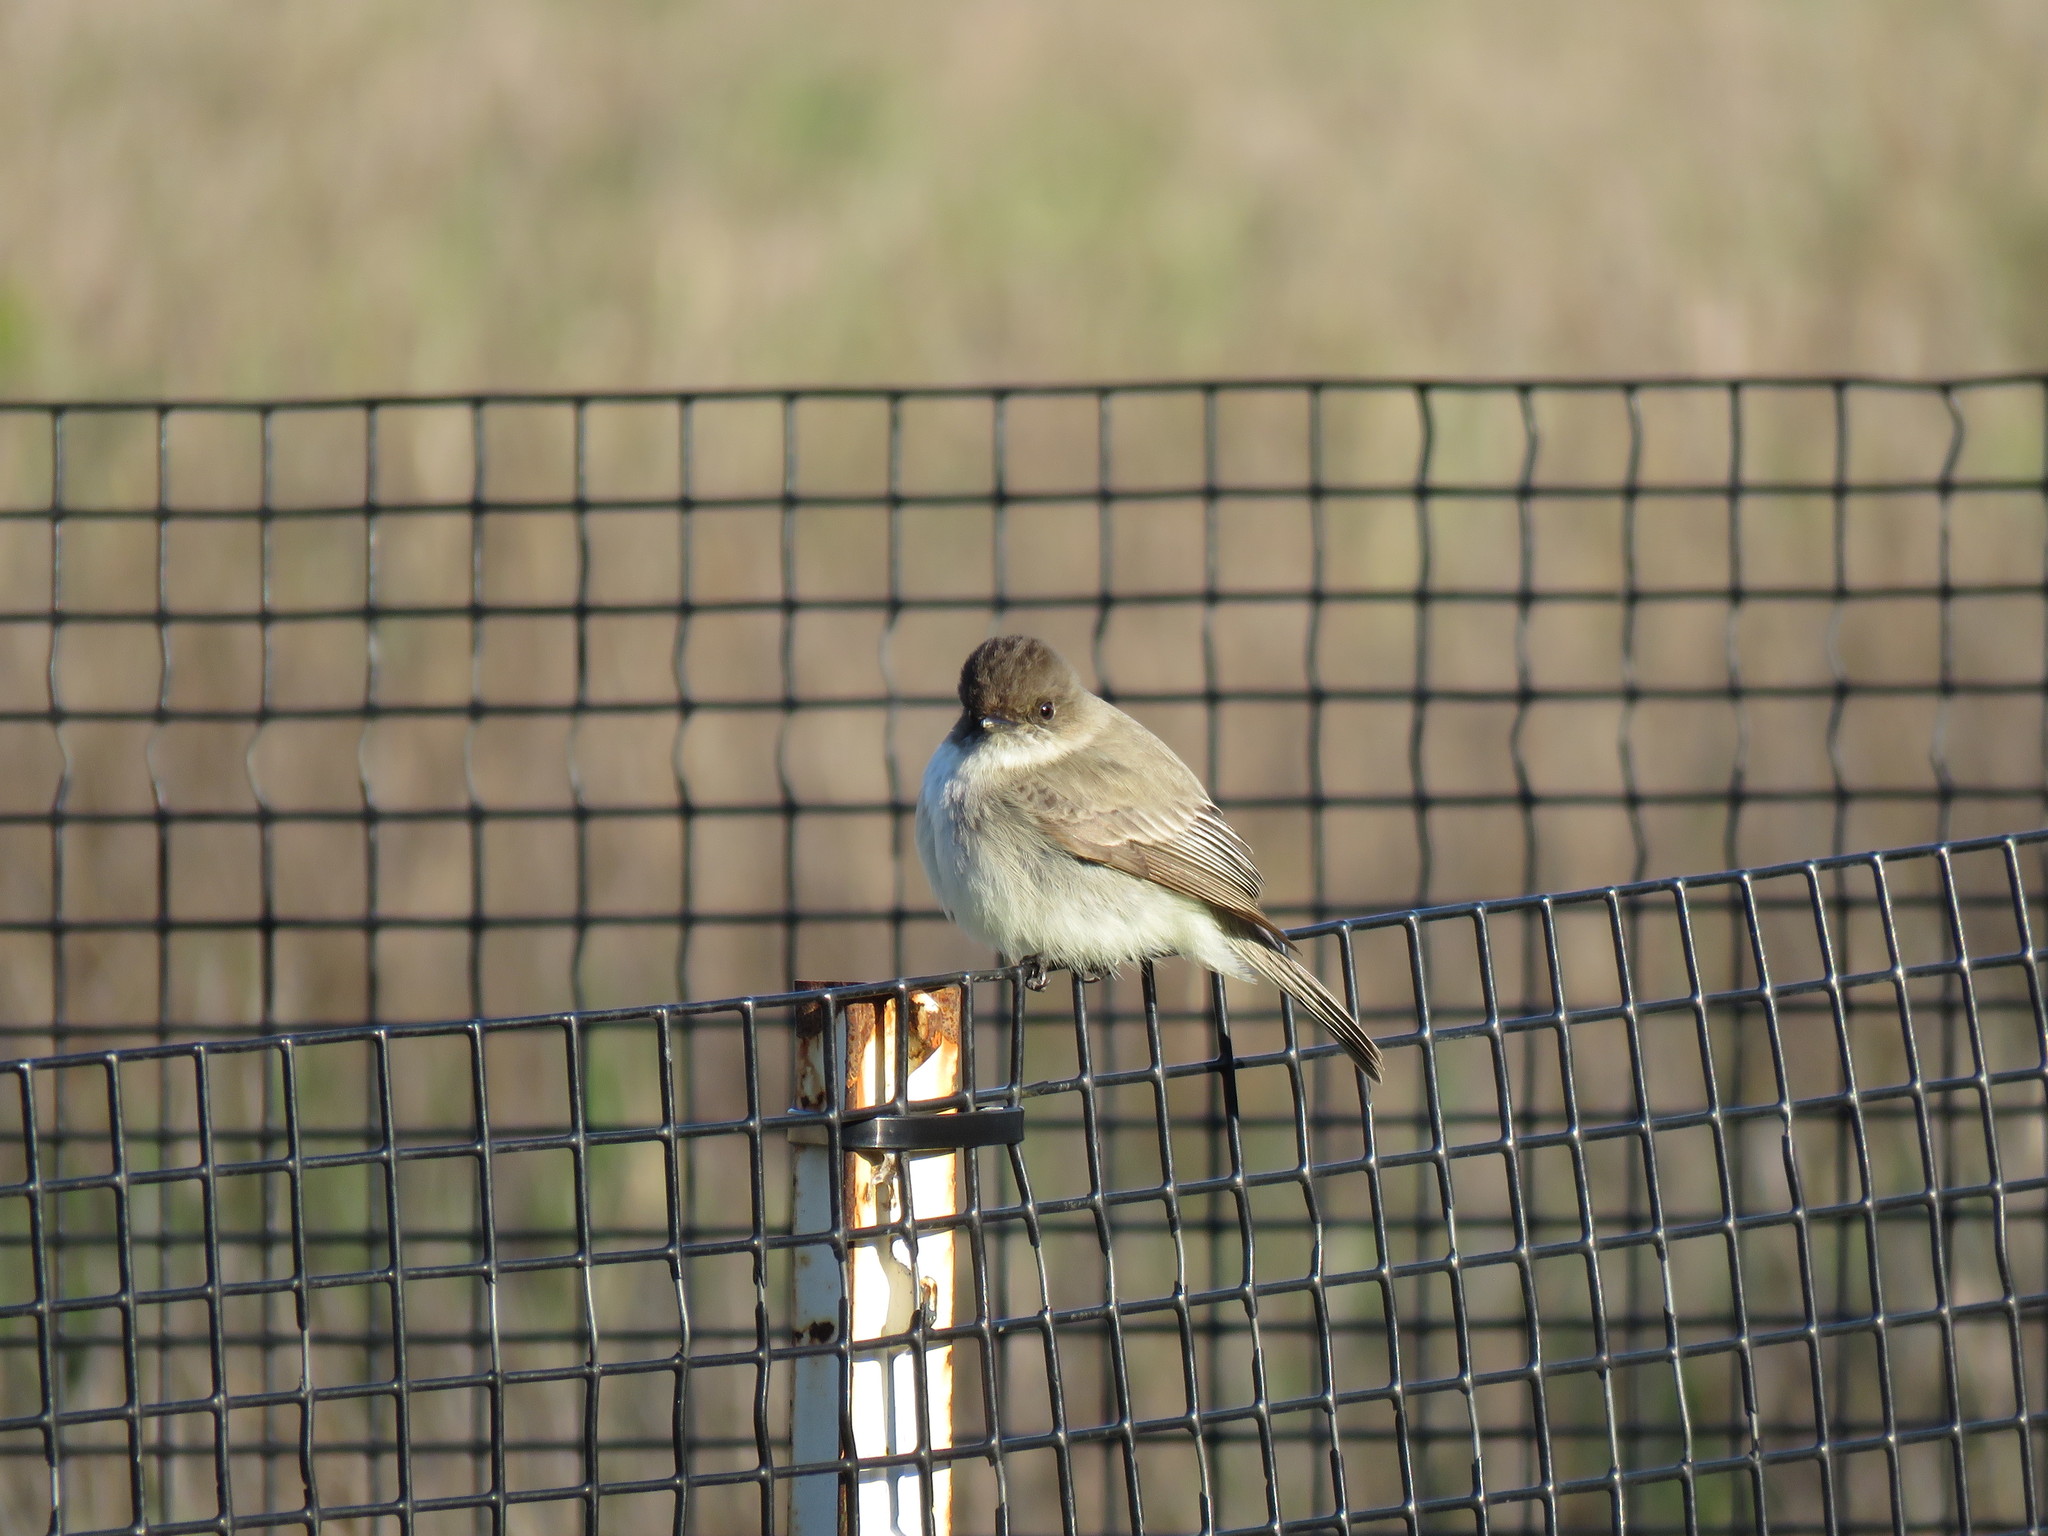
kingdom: Animalia
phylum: Chordata
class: Aves
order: Passeriformes
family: Tyrannidae
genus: Sayornis
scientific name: Sayornis phoebe
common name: Eastern phoebe
